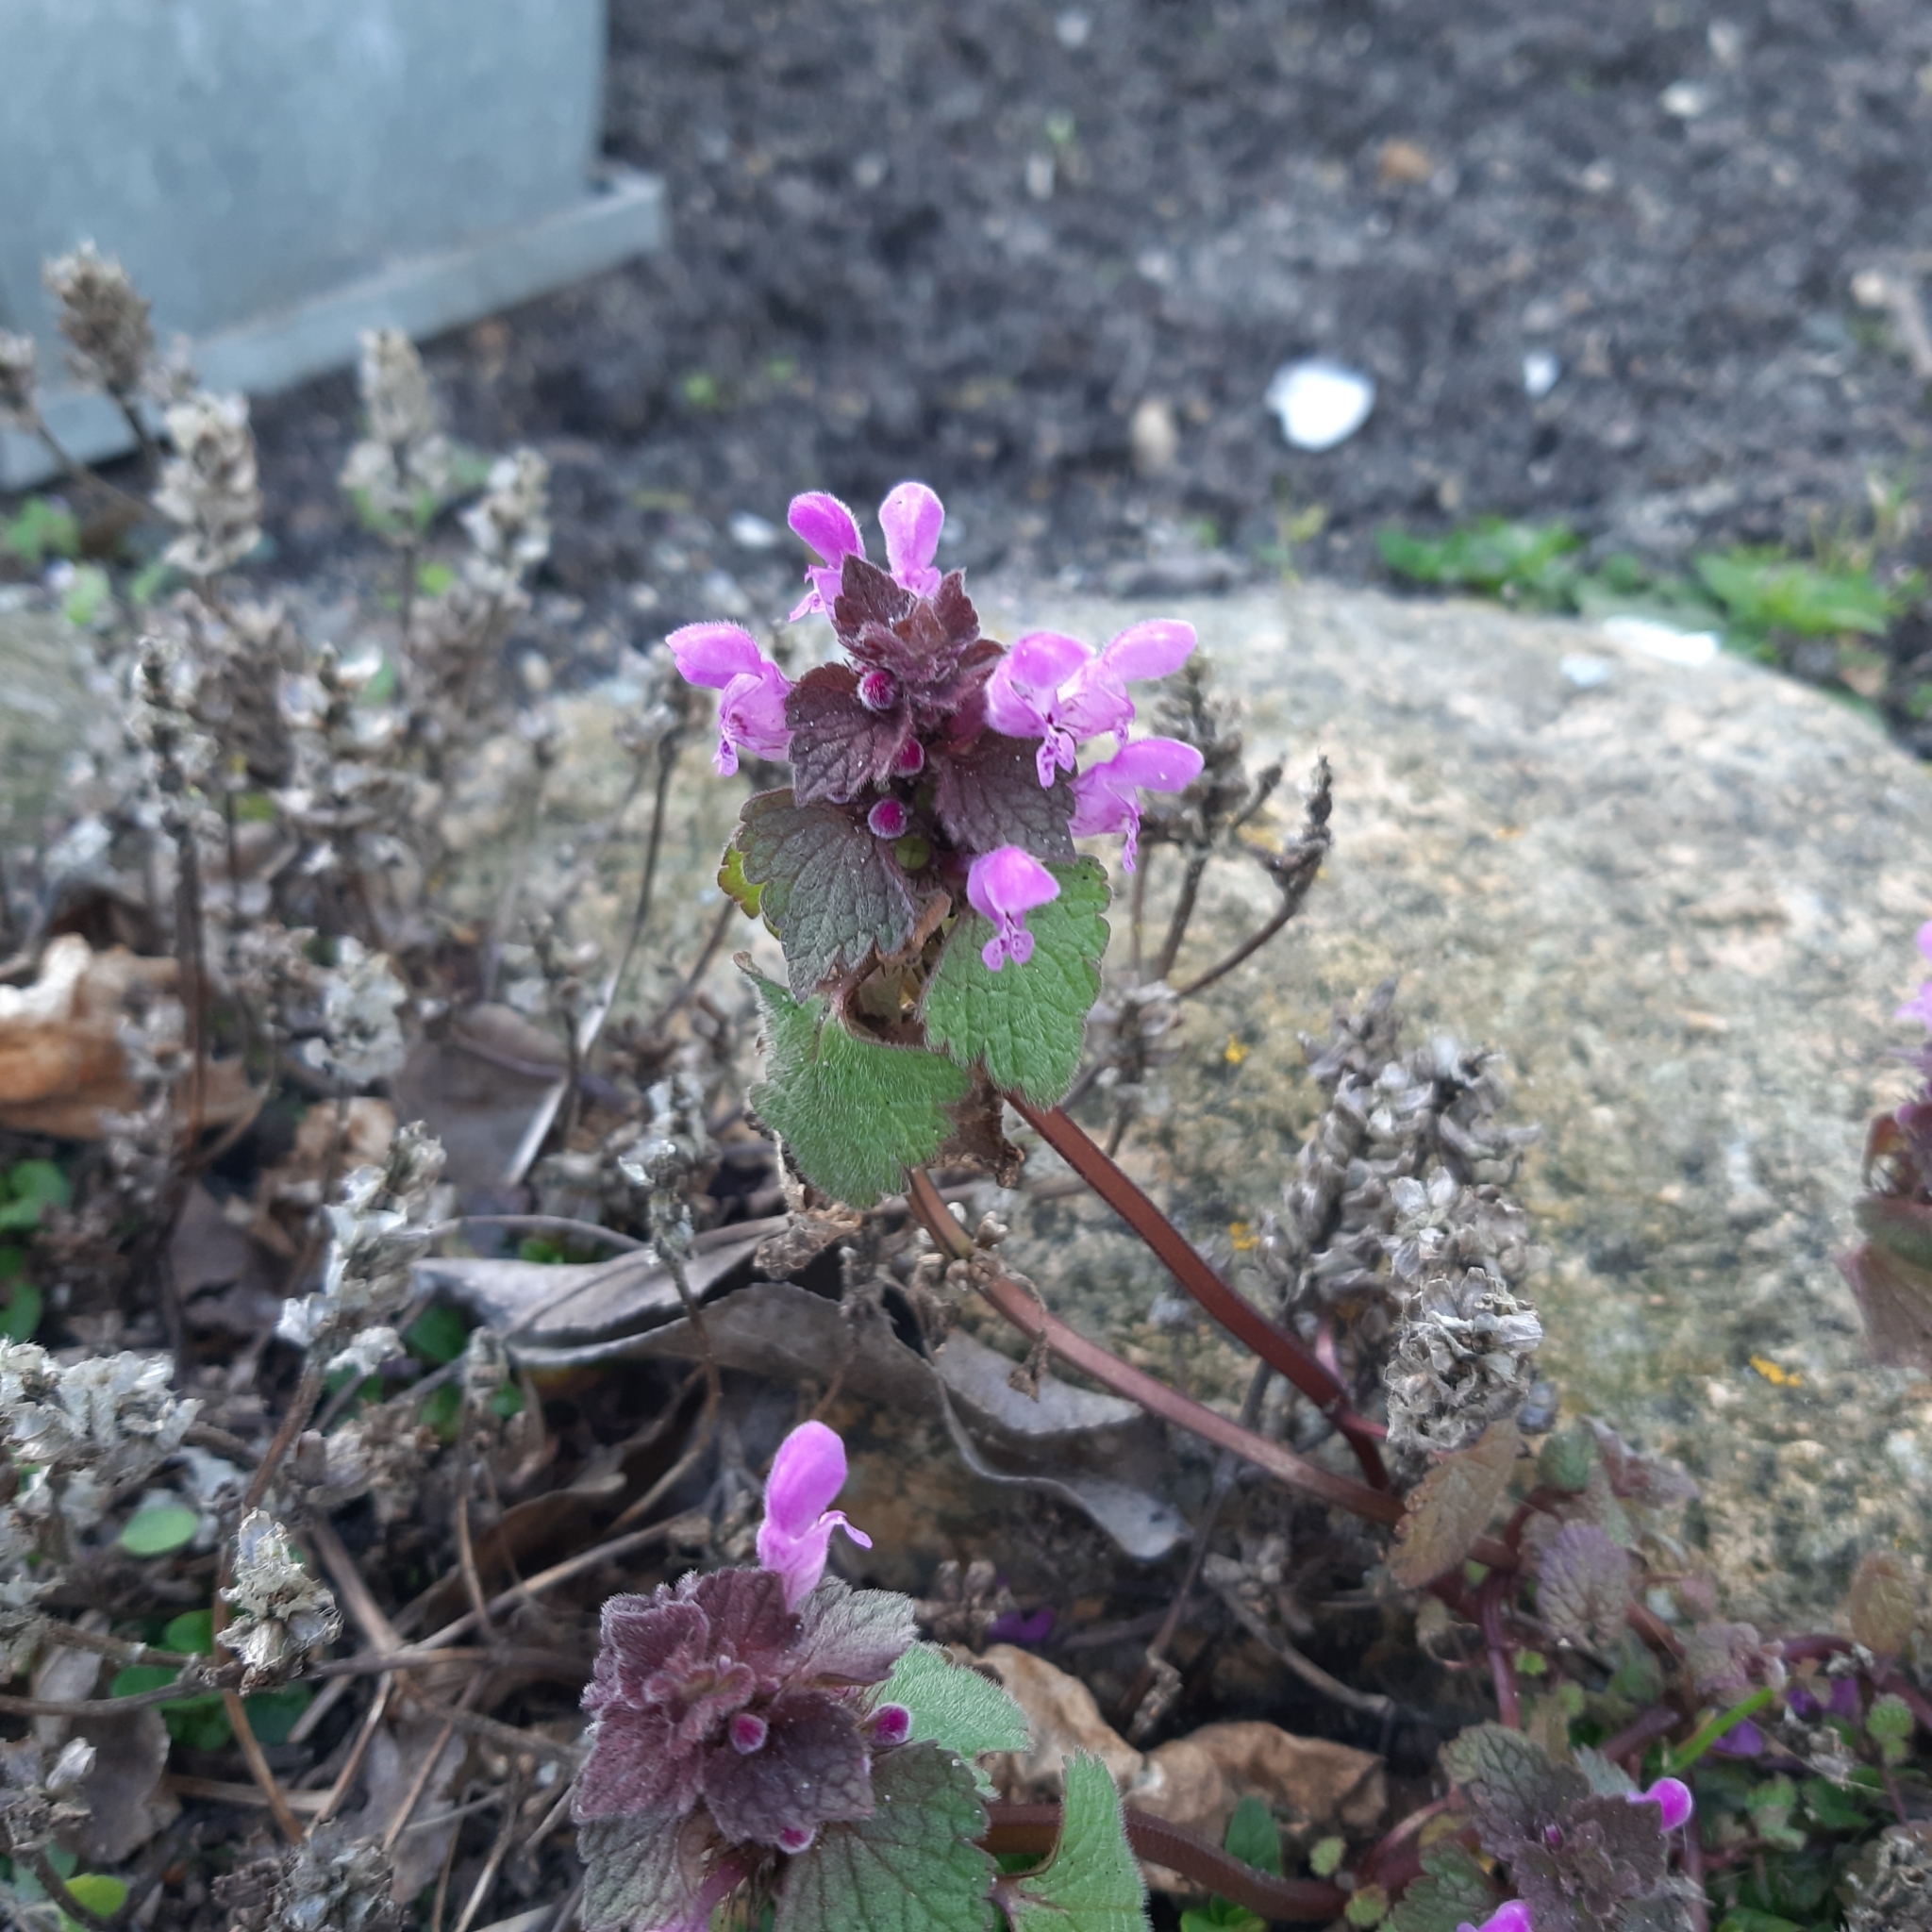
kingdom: Plantae
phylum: Tracheophyta
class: Magnoliopsida
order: Lamiales
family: Lamiaceae
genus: Lamium
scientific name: Lamium purpureum
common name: Red dead-nettle
